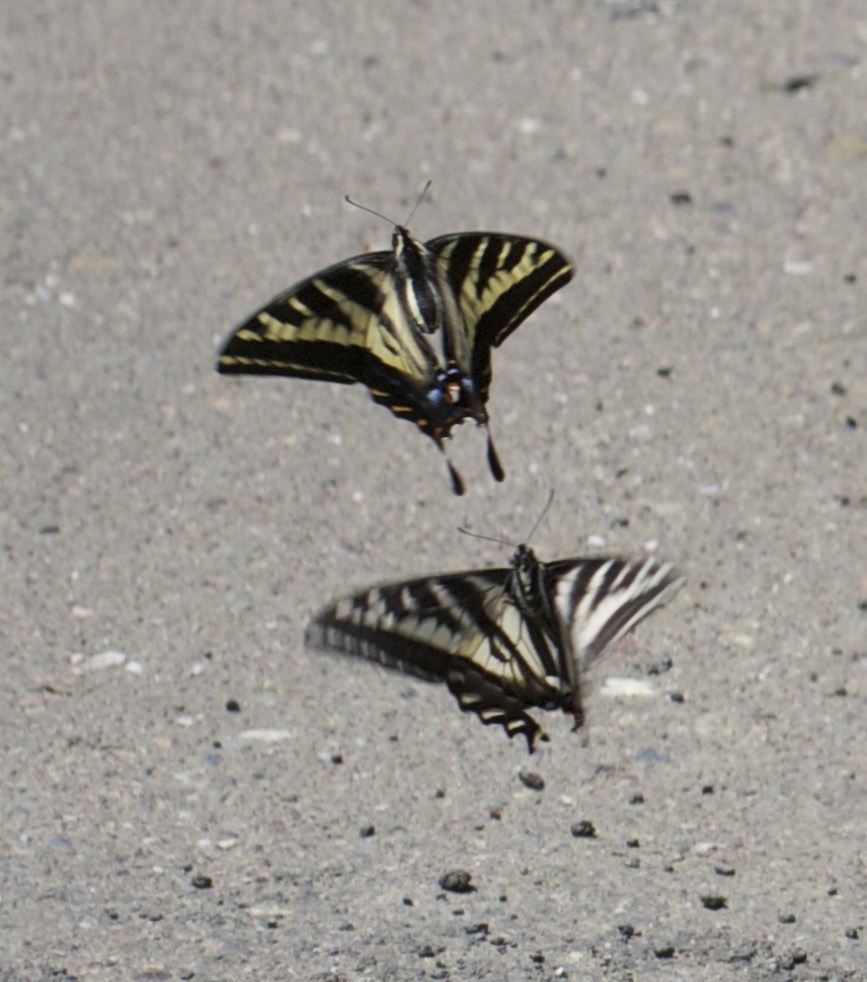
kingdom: Animalia
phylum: Arthropoda
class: Insecta
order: Lepidoptera
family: Papilionidae
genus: Papilio
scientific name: Papilio eurymedon
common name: Pale tiger swallowtail
